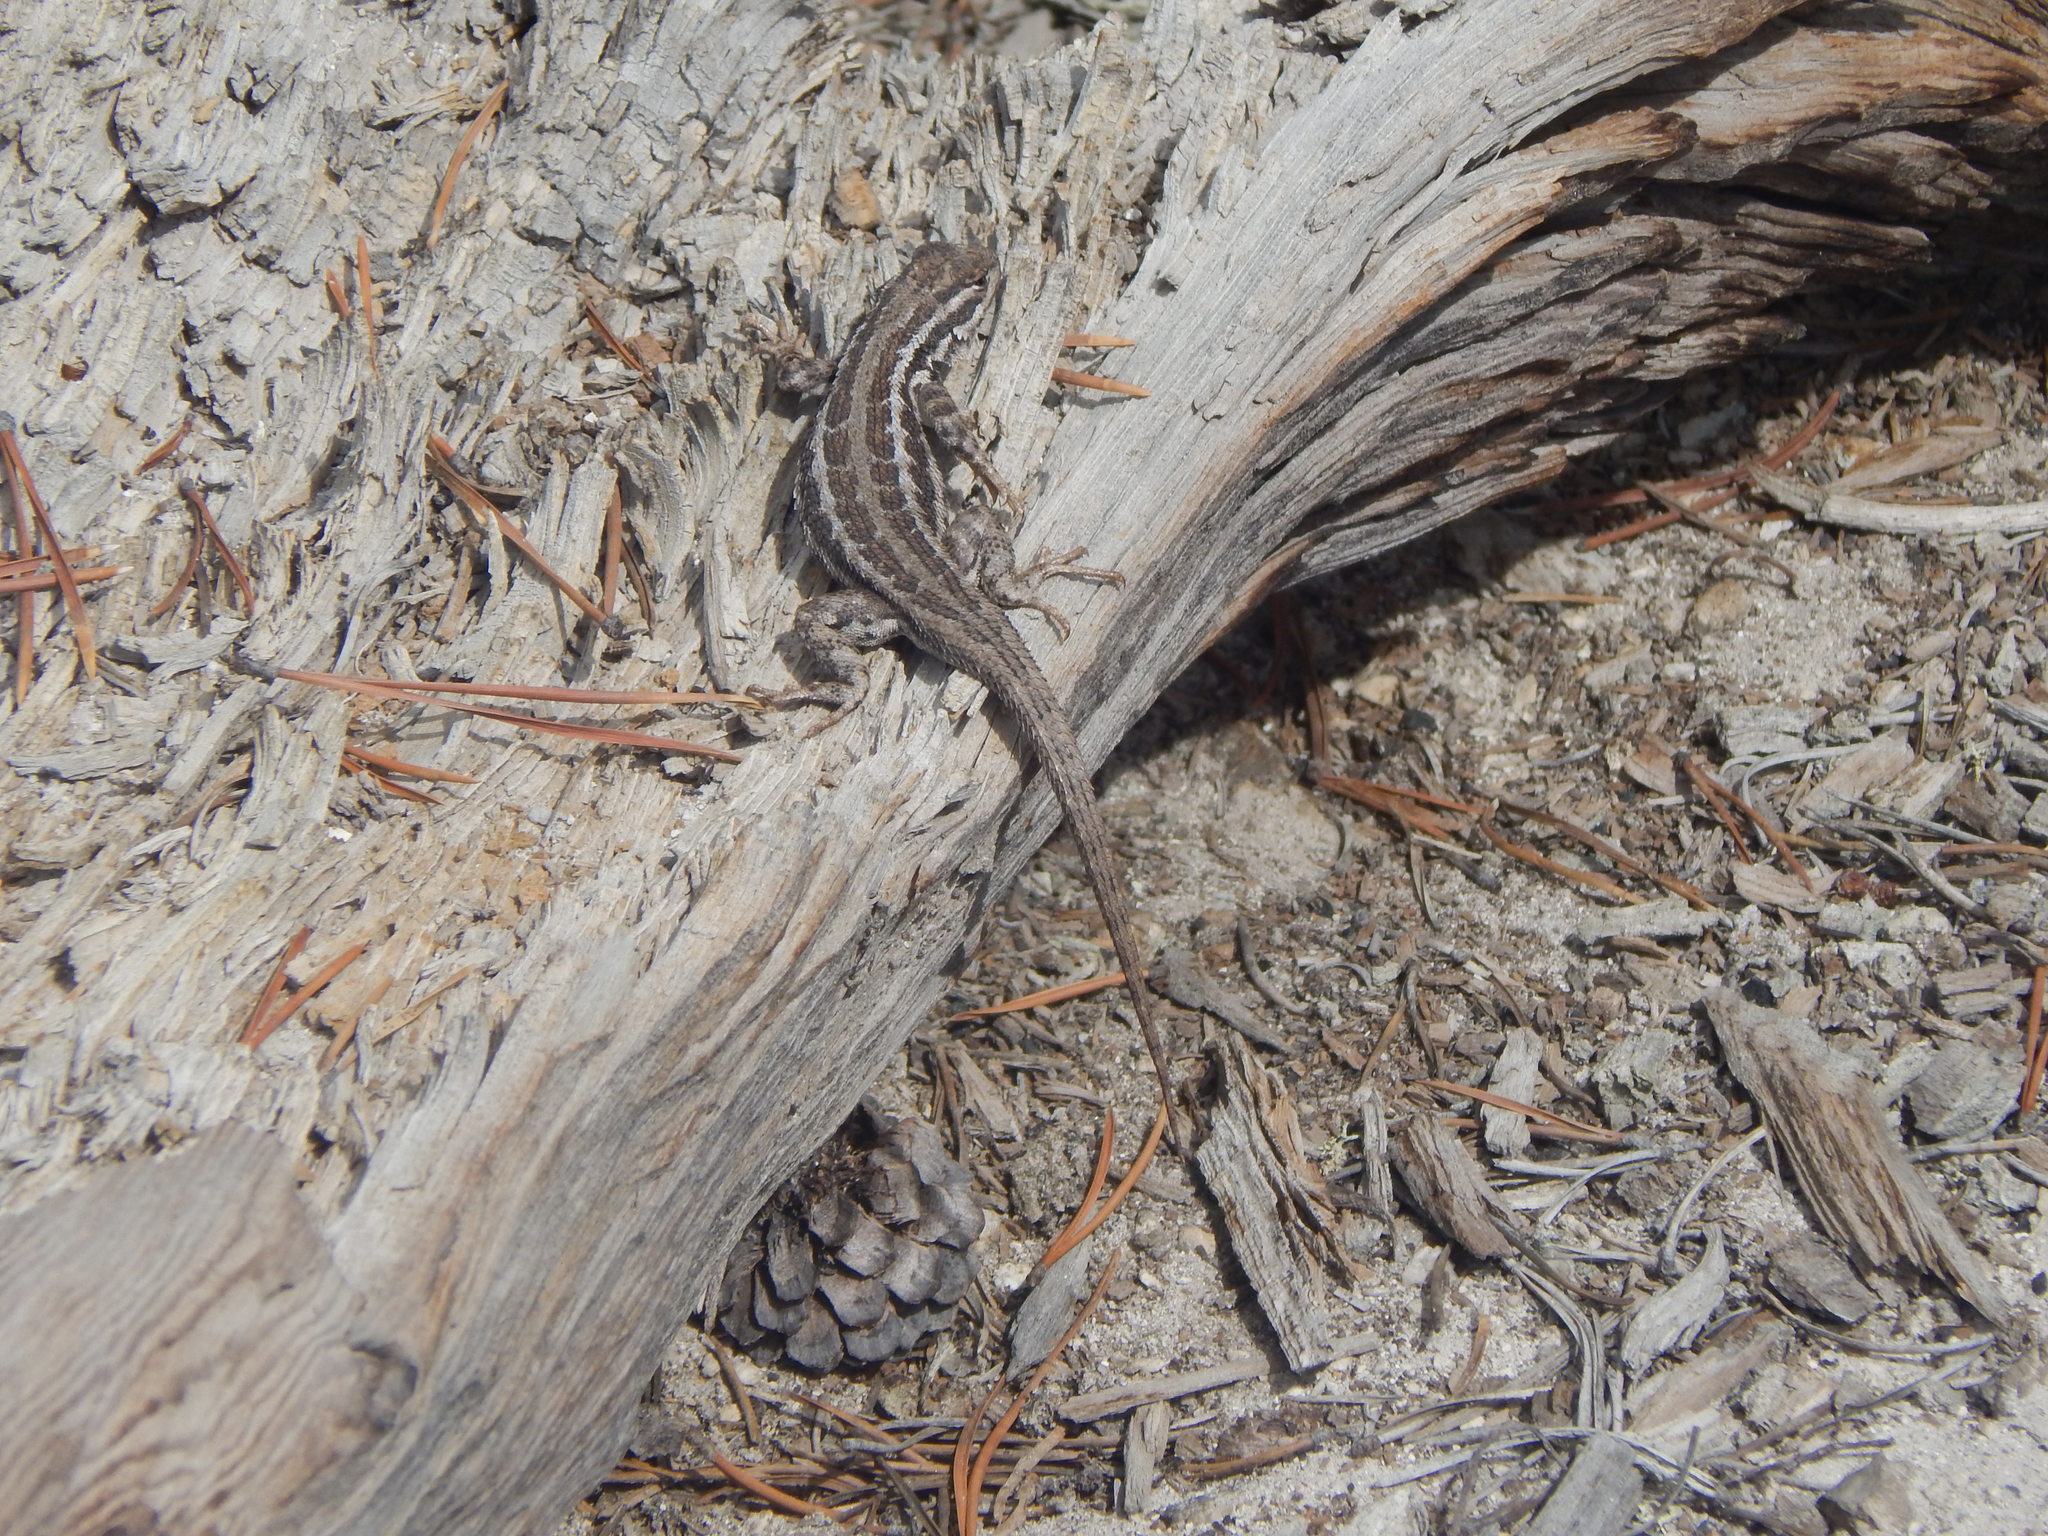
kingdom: Animalia
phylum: Chordata
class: Squamata
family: Phrynosomatidae
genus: Sceloporus
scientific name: Sceloporus graciosus
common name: Sagebrush lizard
